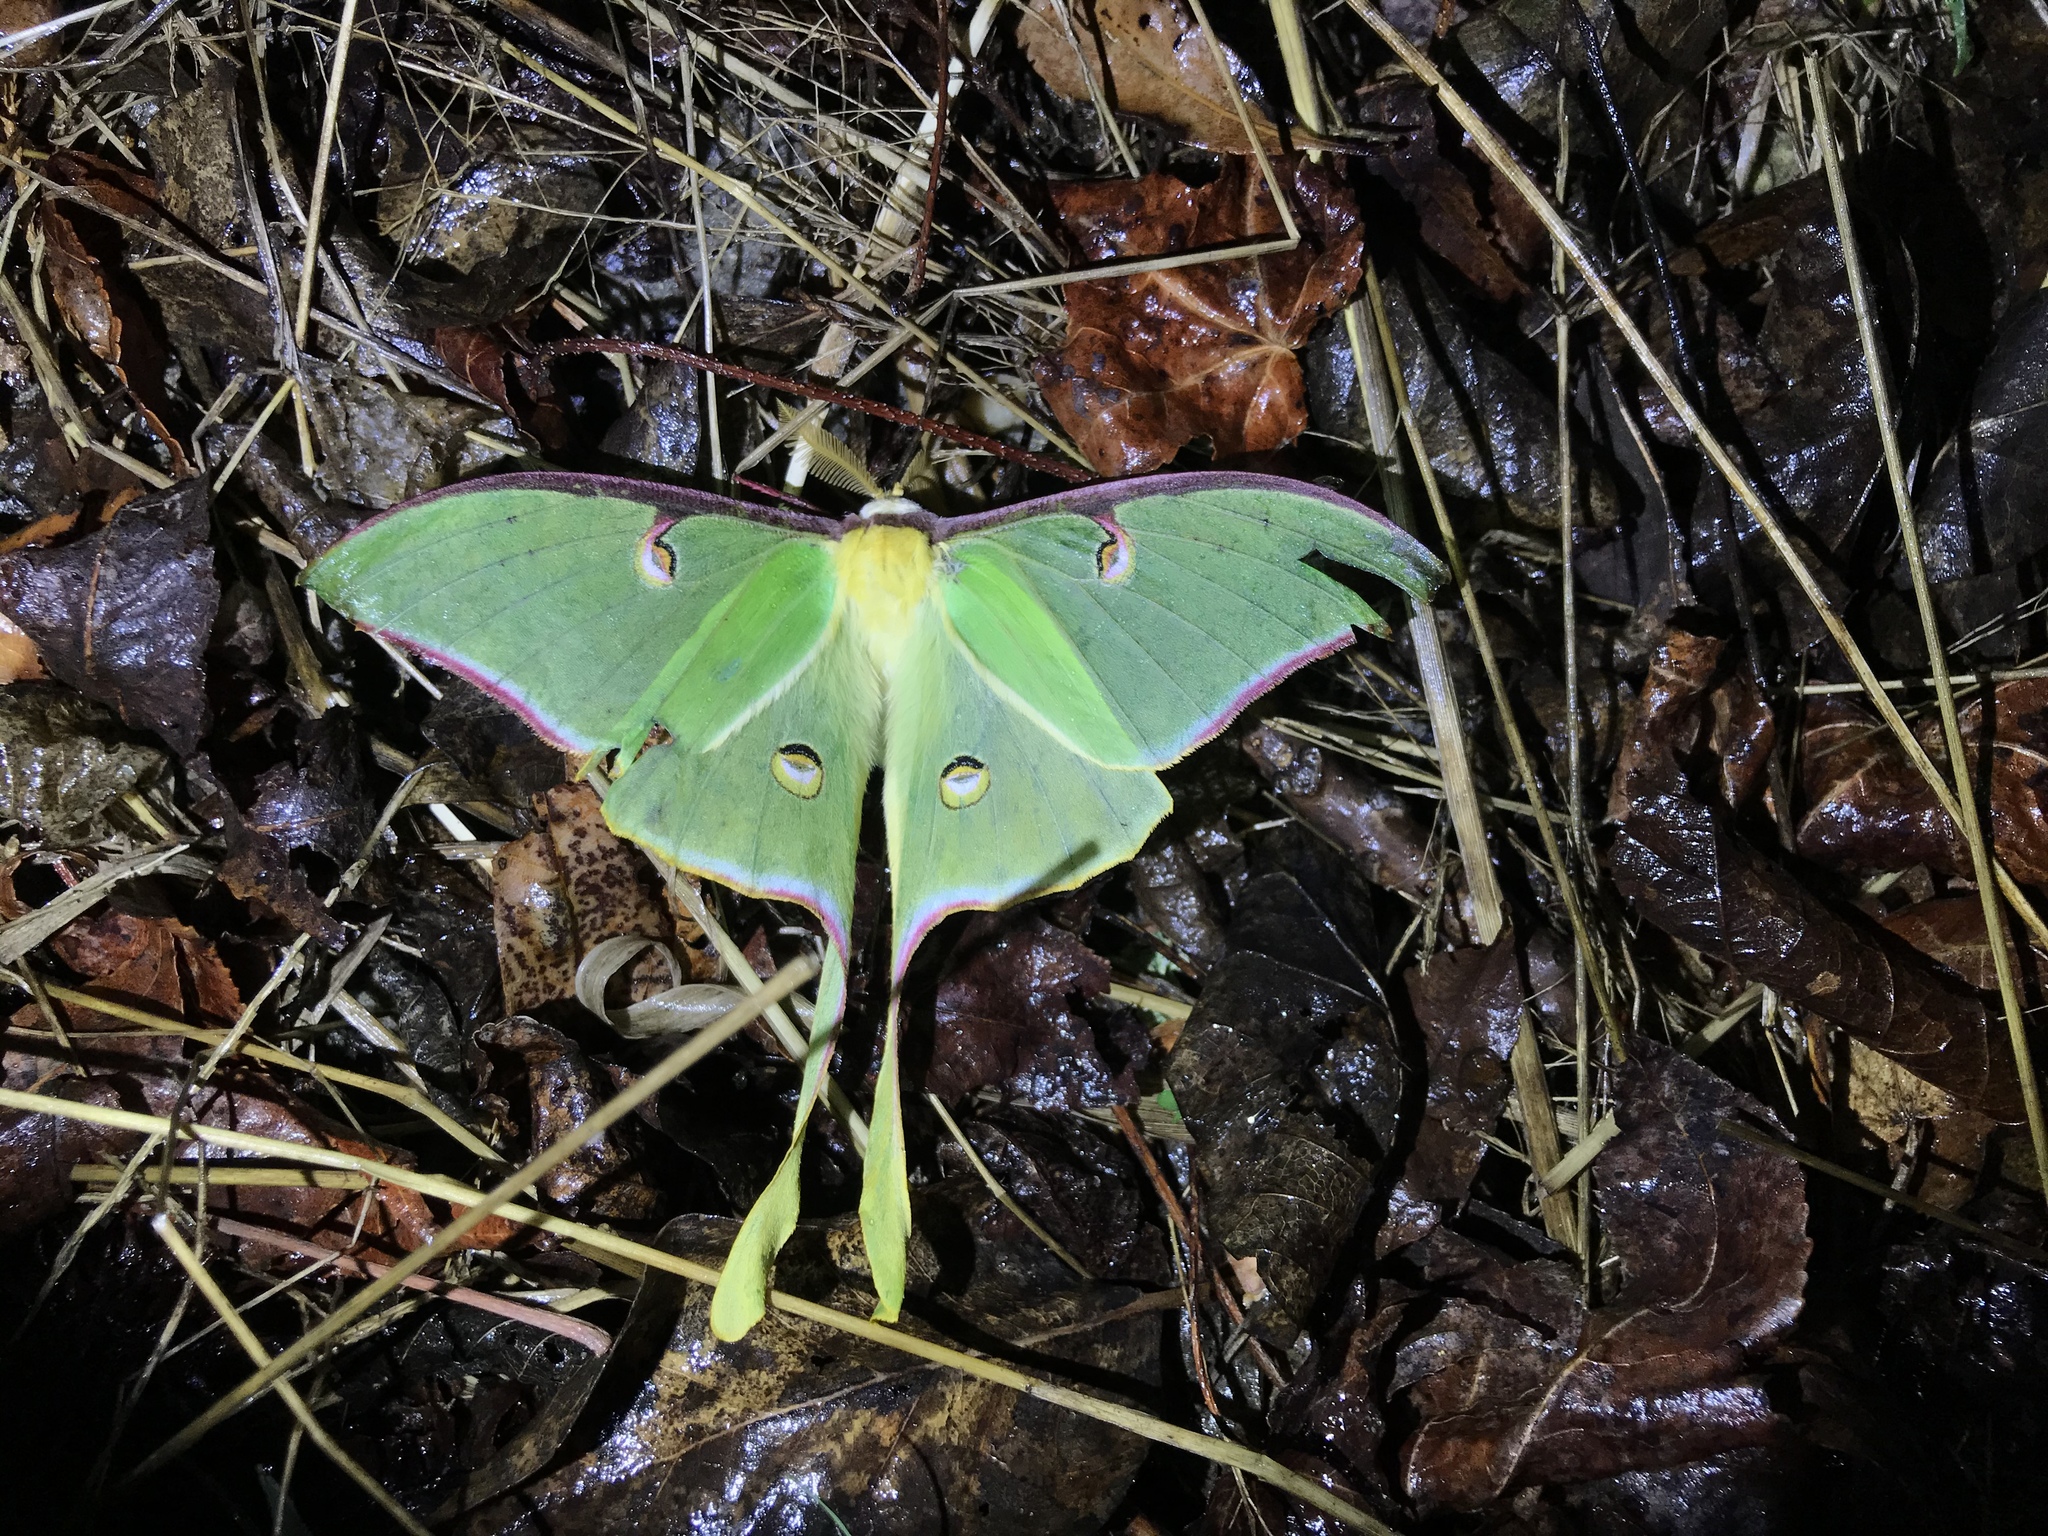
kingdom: Animalia
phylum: Arthropoda
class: Insecta
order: Lepidoptera
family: Saturniidae
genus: Actias
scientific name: Actias luna
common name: Luna moth
